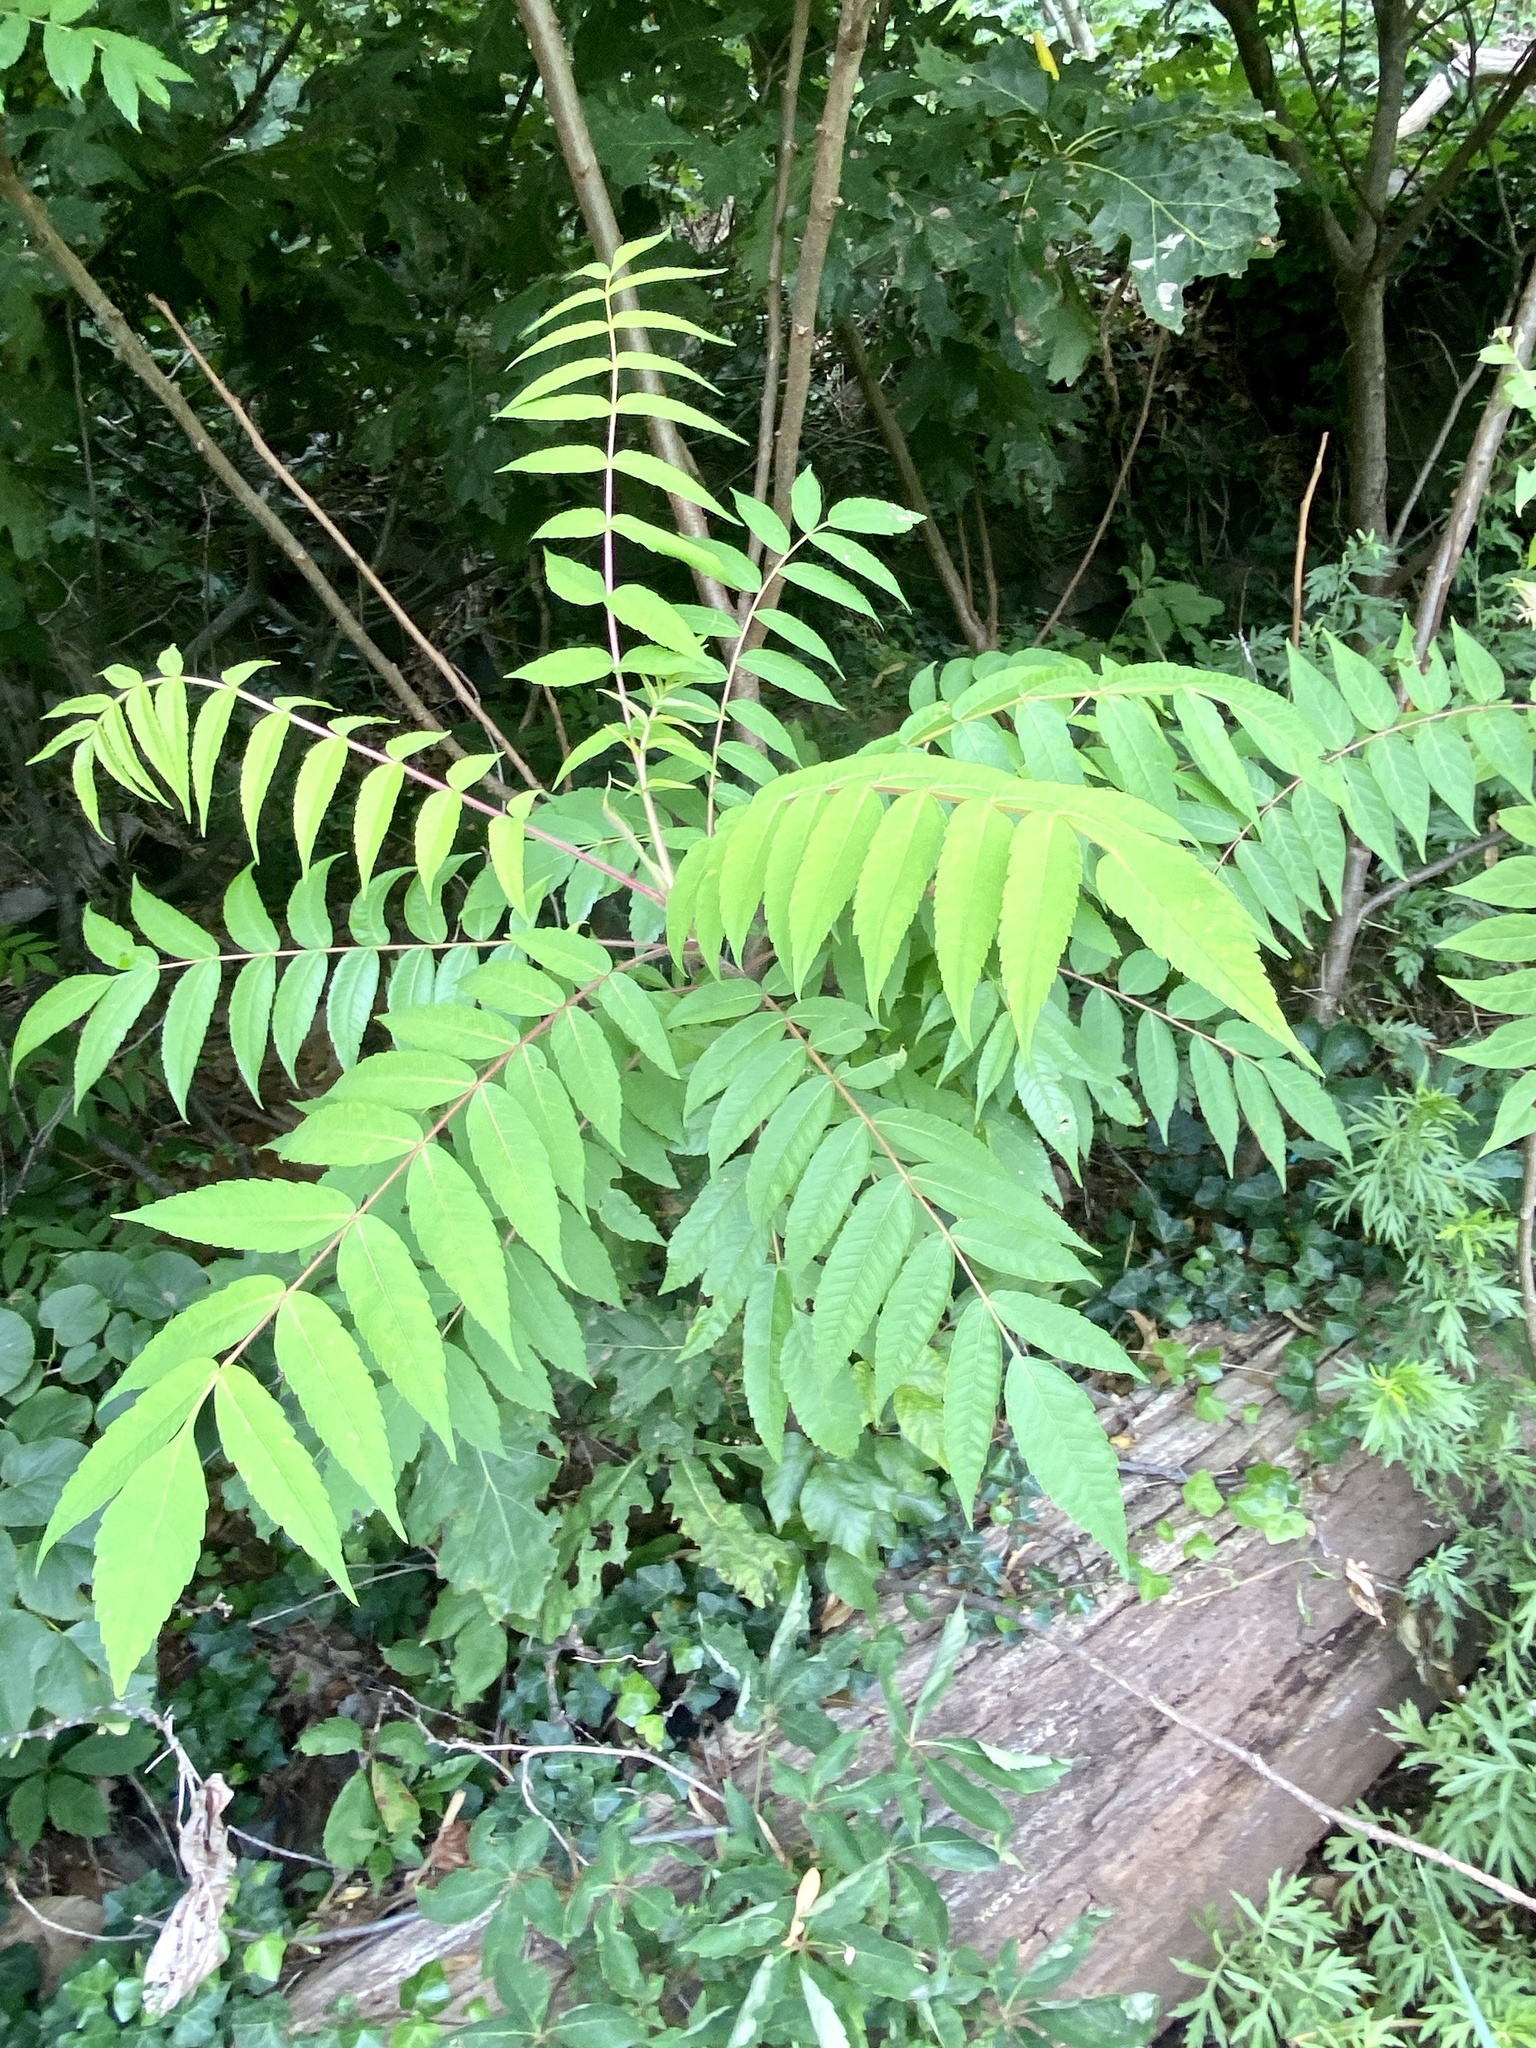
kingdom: Plantae
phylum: Tracheophyta
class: Magnoliopsida
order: Sapindales
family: Anacardiaceae
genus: Rhus
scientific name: Rhus typhina
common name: Staghorn sumac
